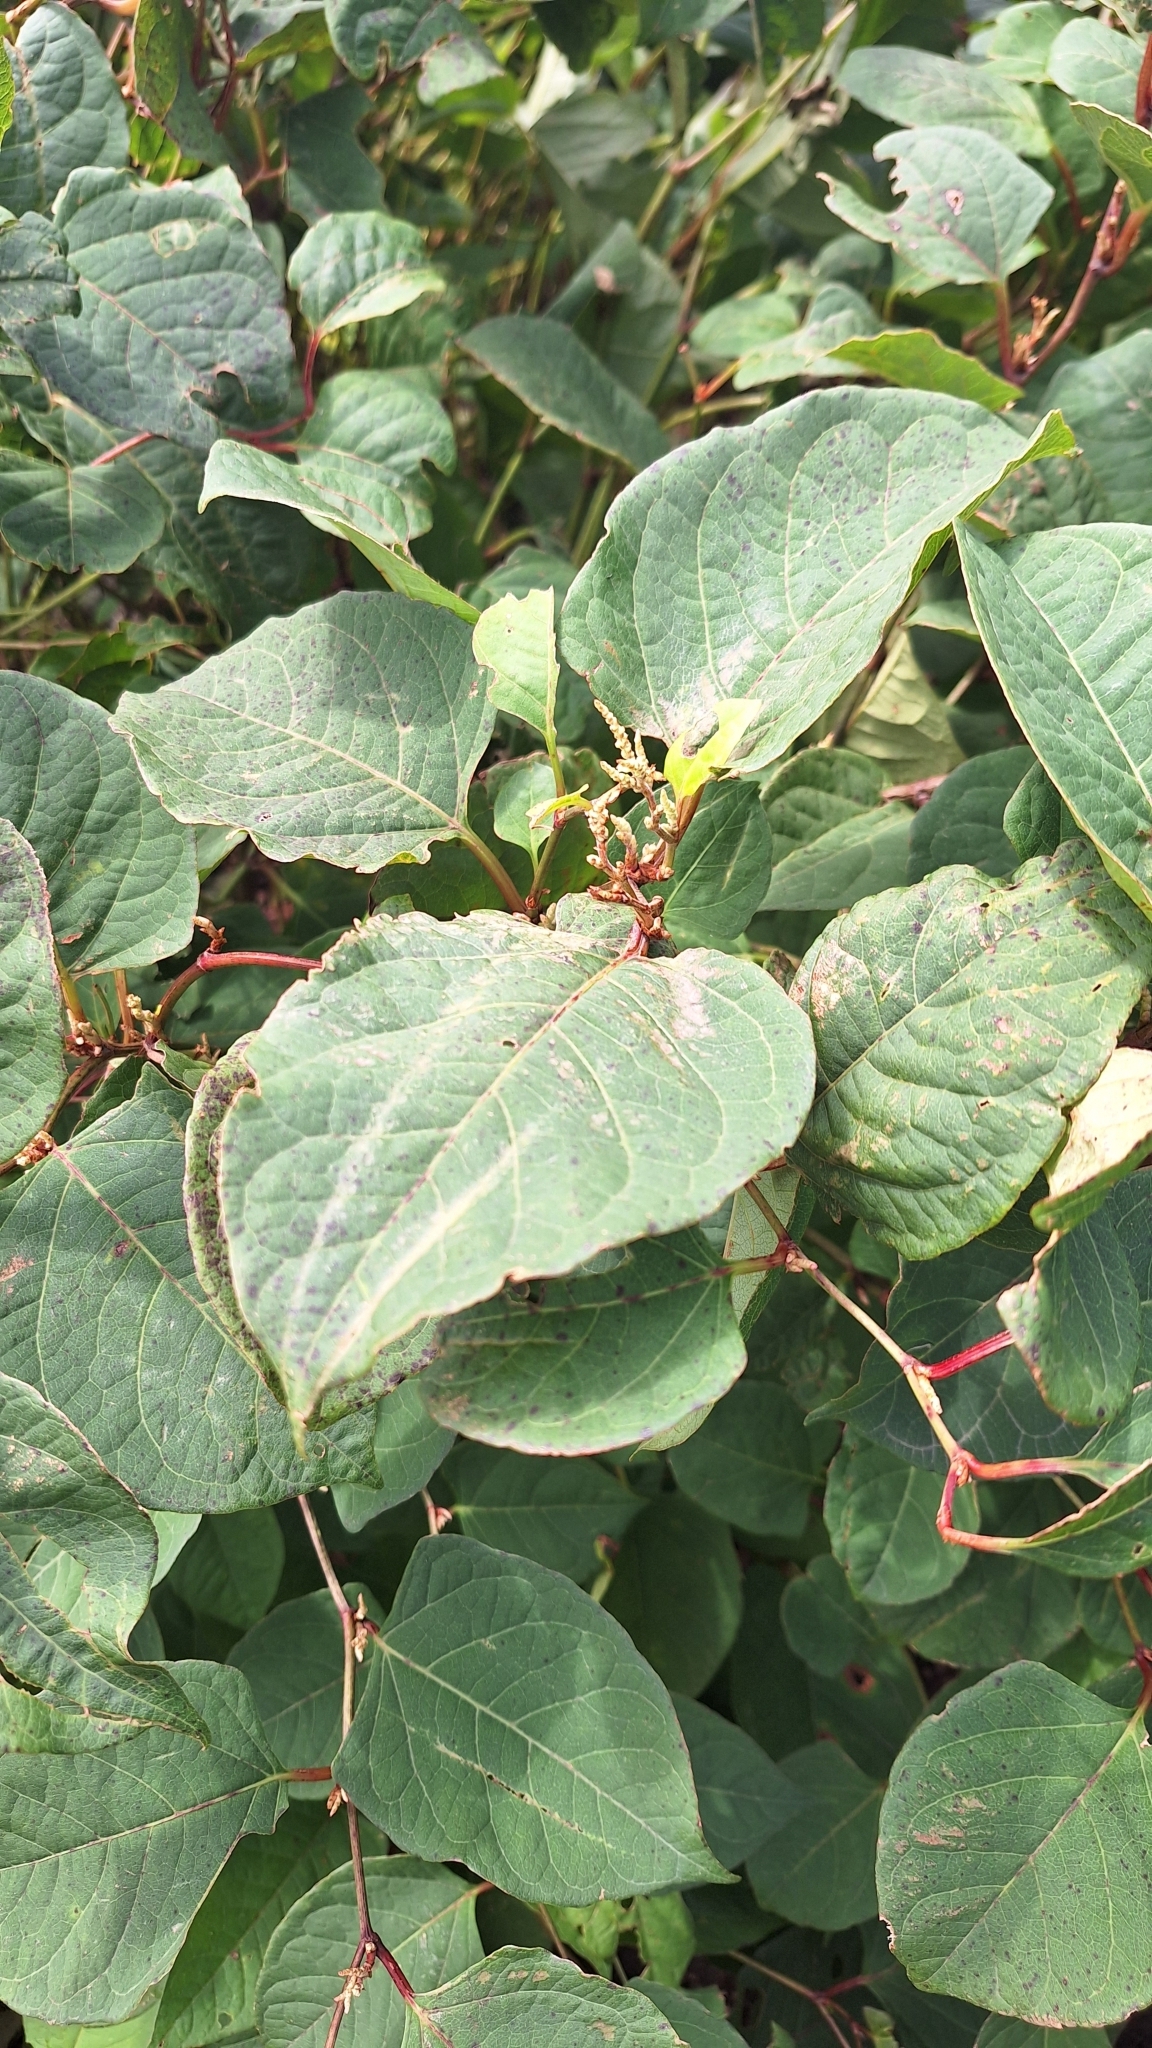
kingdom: Plantae
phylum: Tracheophyta
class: Magnoliopsida
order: Caryophyllales
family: Polygonaceae
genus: Reynoutria
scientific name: Reynoutria japonica
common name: Japanese knotweed
